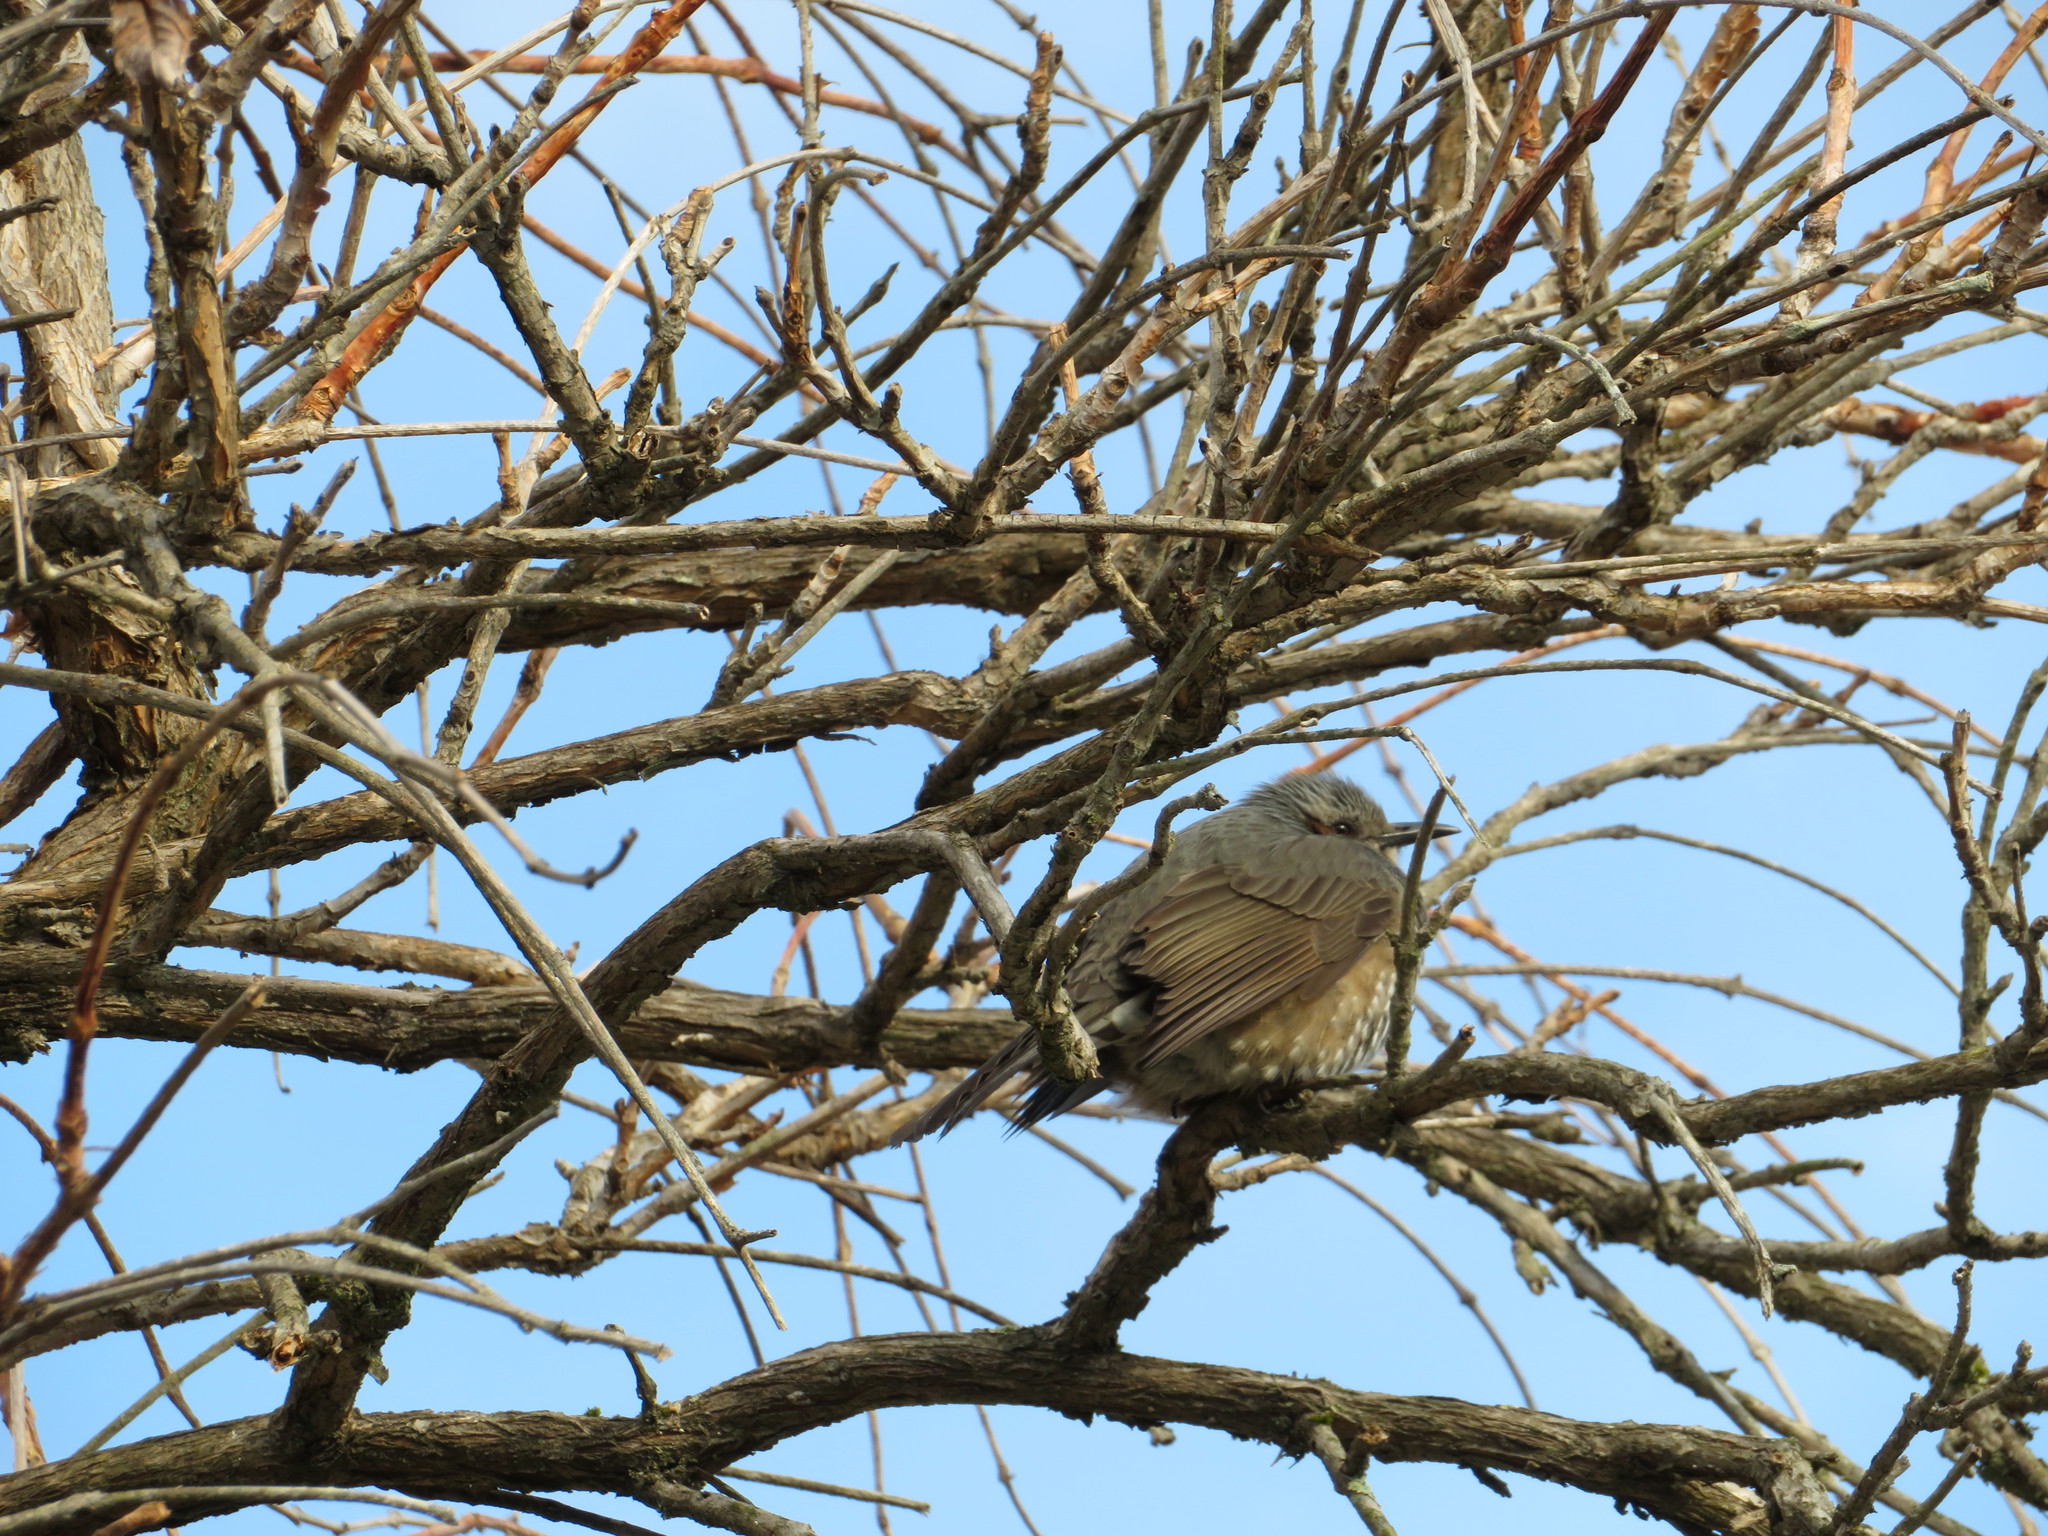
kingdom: Animalia
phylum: Chordata
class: Aves
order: Passeriformes
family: Pycnonotidae
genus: Hypsipetes
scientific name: Hypsipetes amaurotis
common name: Brown-eared bulbul
